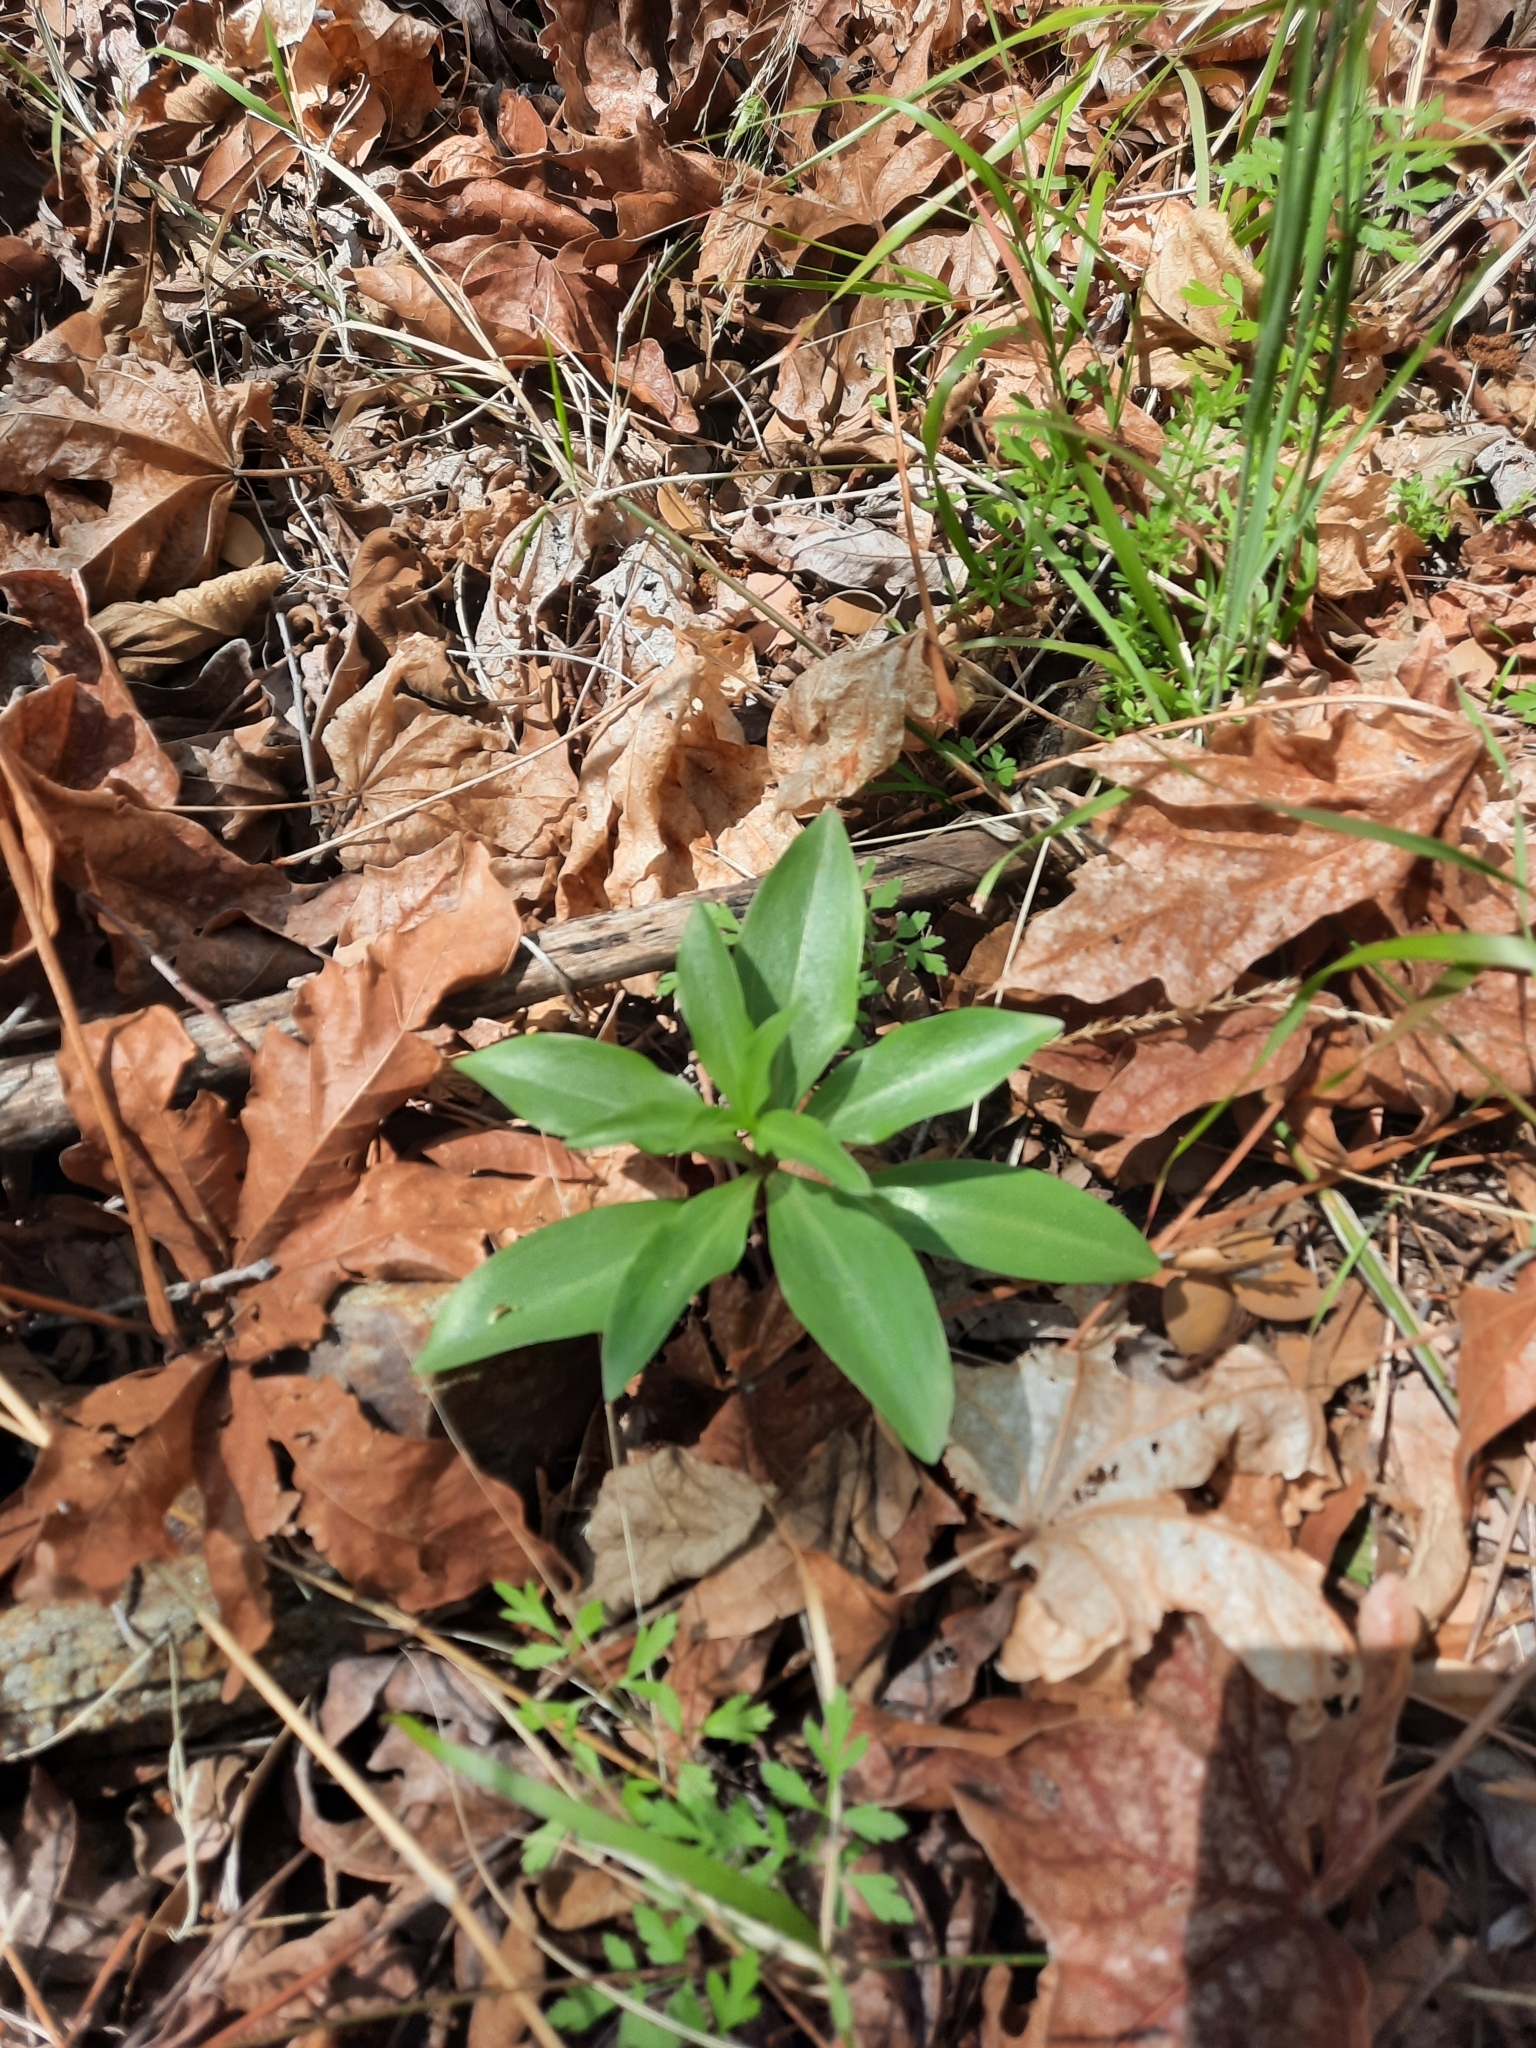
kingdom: Plantae
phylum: Tracheophyta
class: Liliopsida
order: Liliales
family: Liliaceae
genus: Lilium
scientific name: Lilium humboldtii
